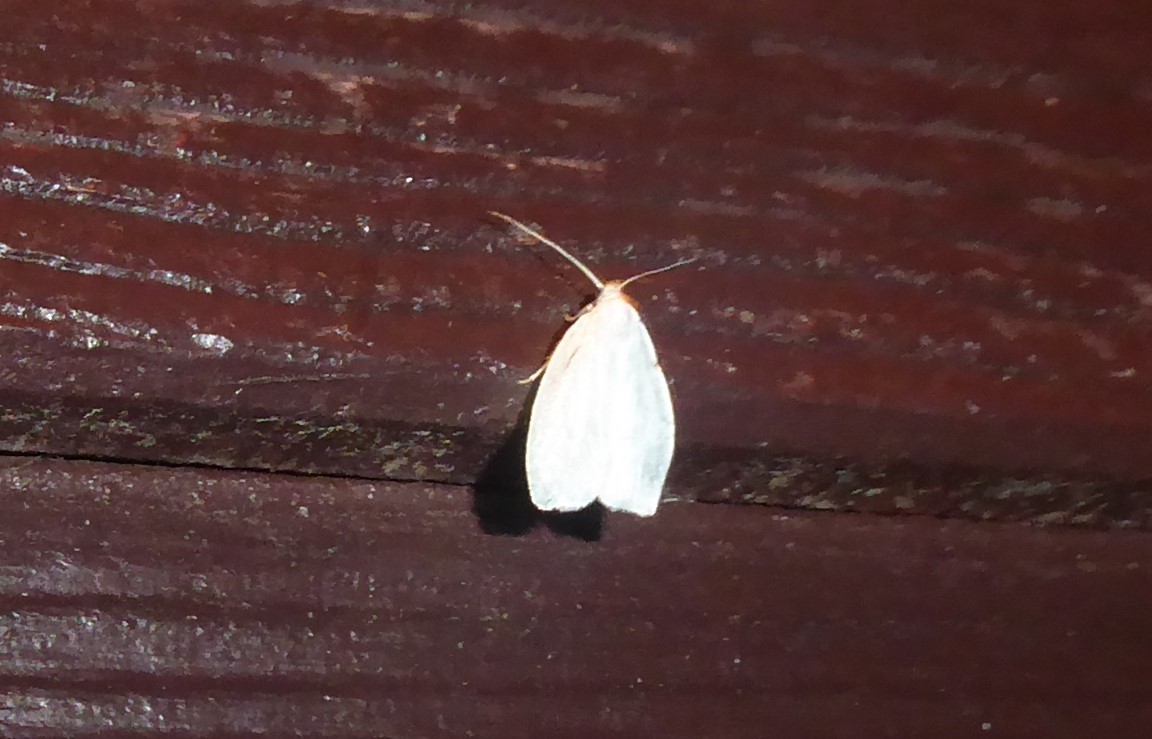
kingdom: Animalia
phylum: Arthropoda
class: Insecta
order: Lepidoptera
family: Oecophoridae
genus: Nymphostola
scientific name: Nymphostola galactina
